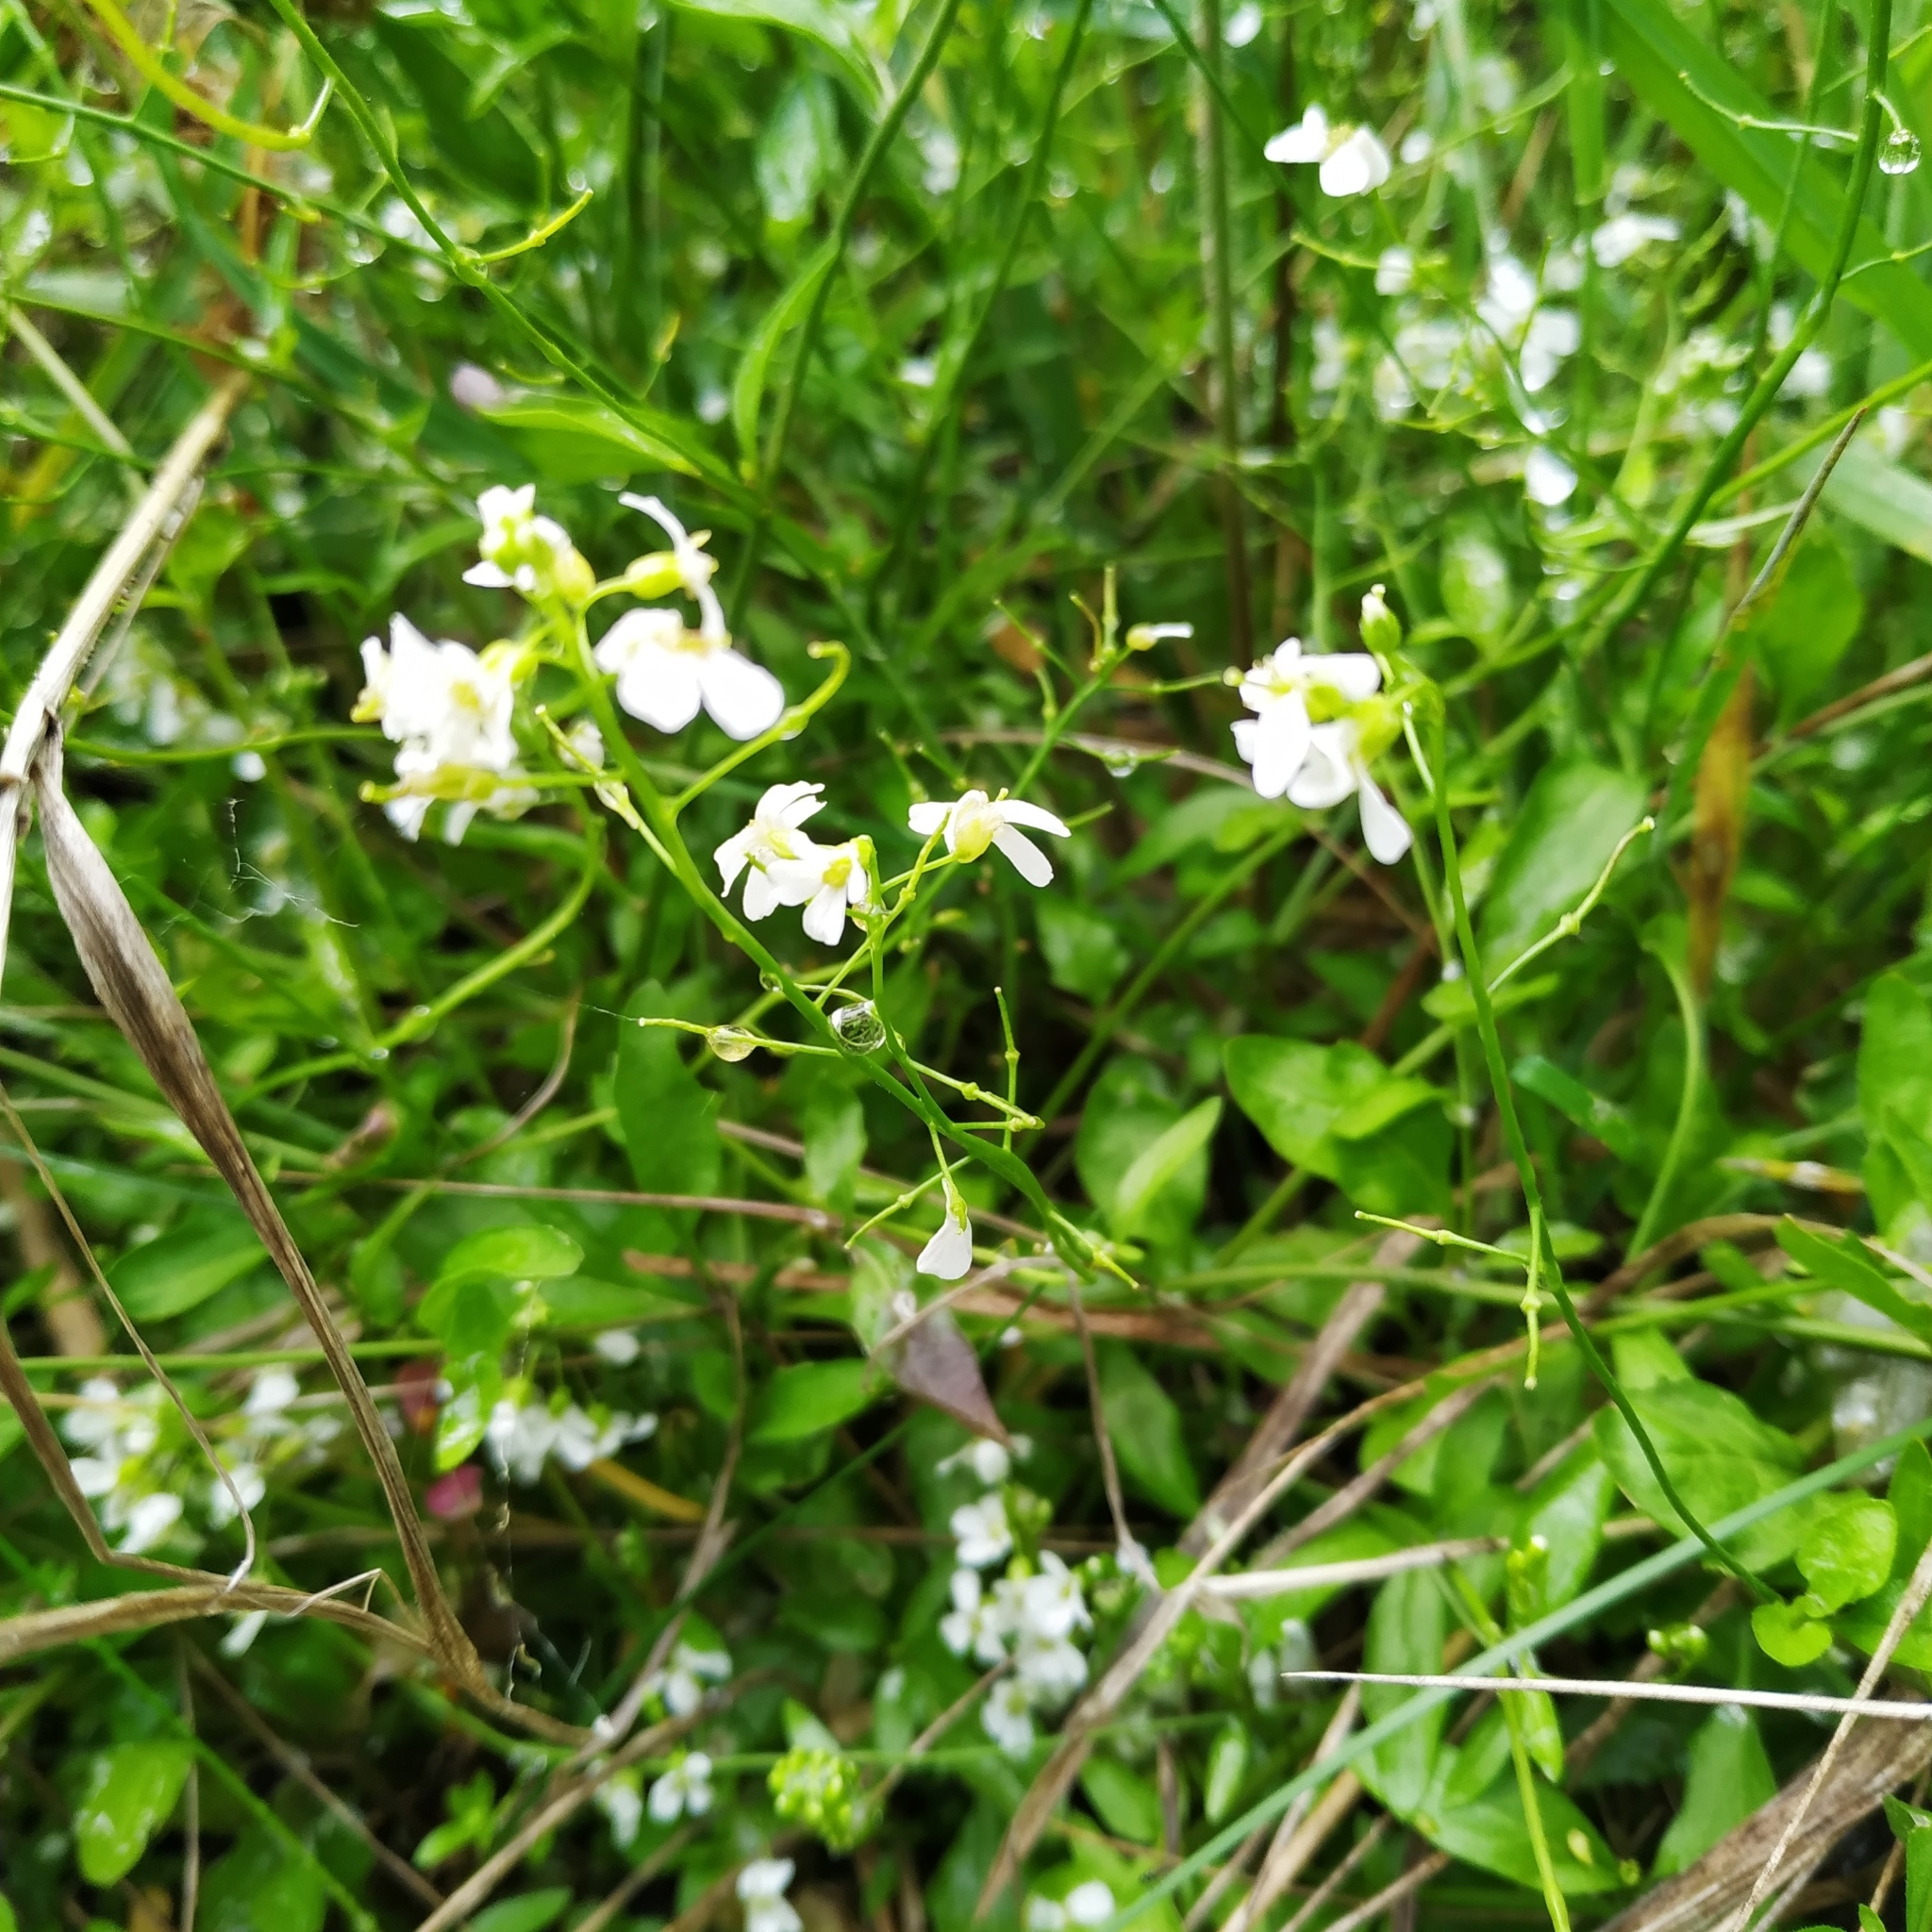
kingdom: Plantae
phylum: Tracheophyta
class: Magnoliopsida
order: Brassicales
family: Brassicaceae
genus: Arabidopsis
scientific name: Arabidopsis halleri
